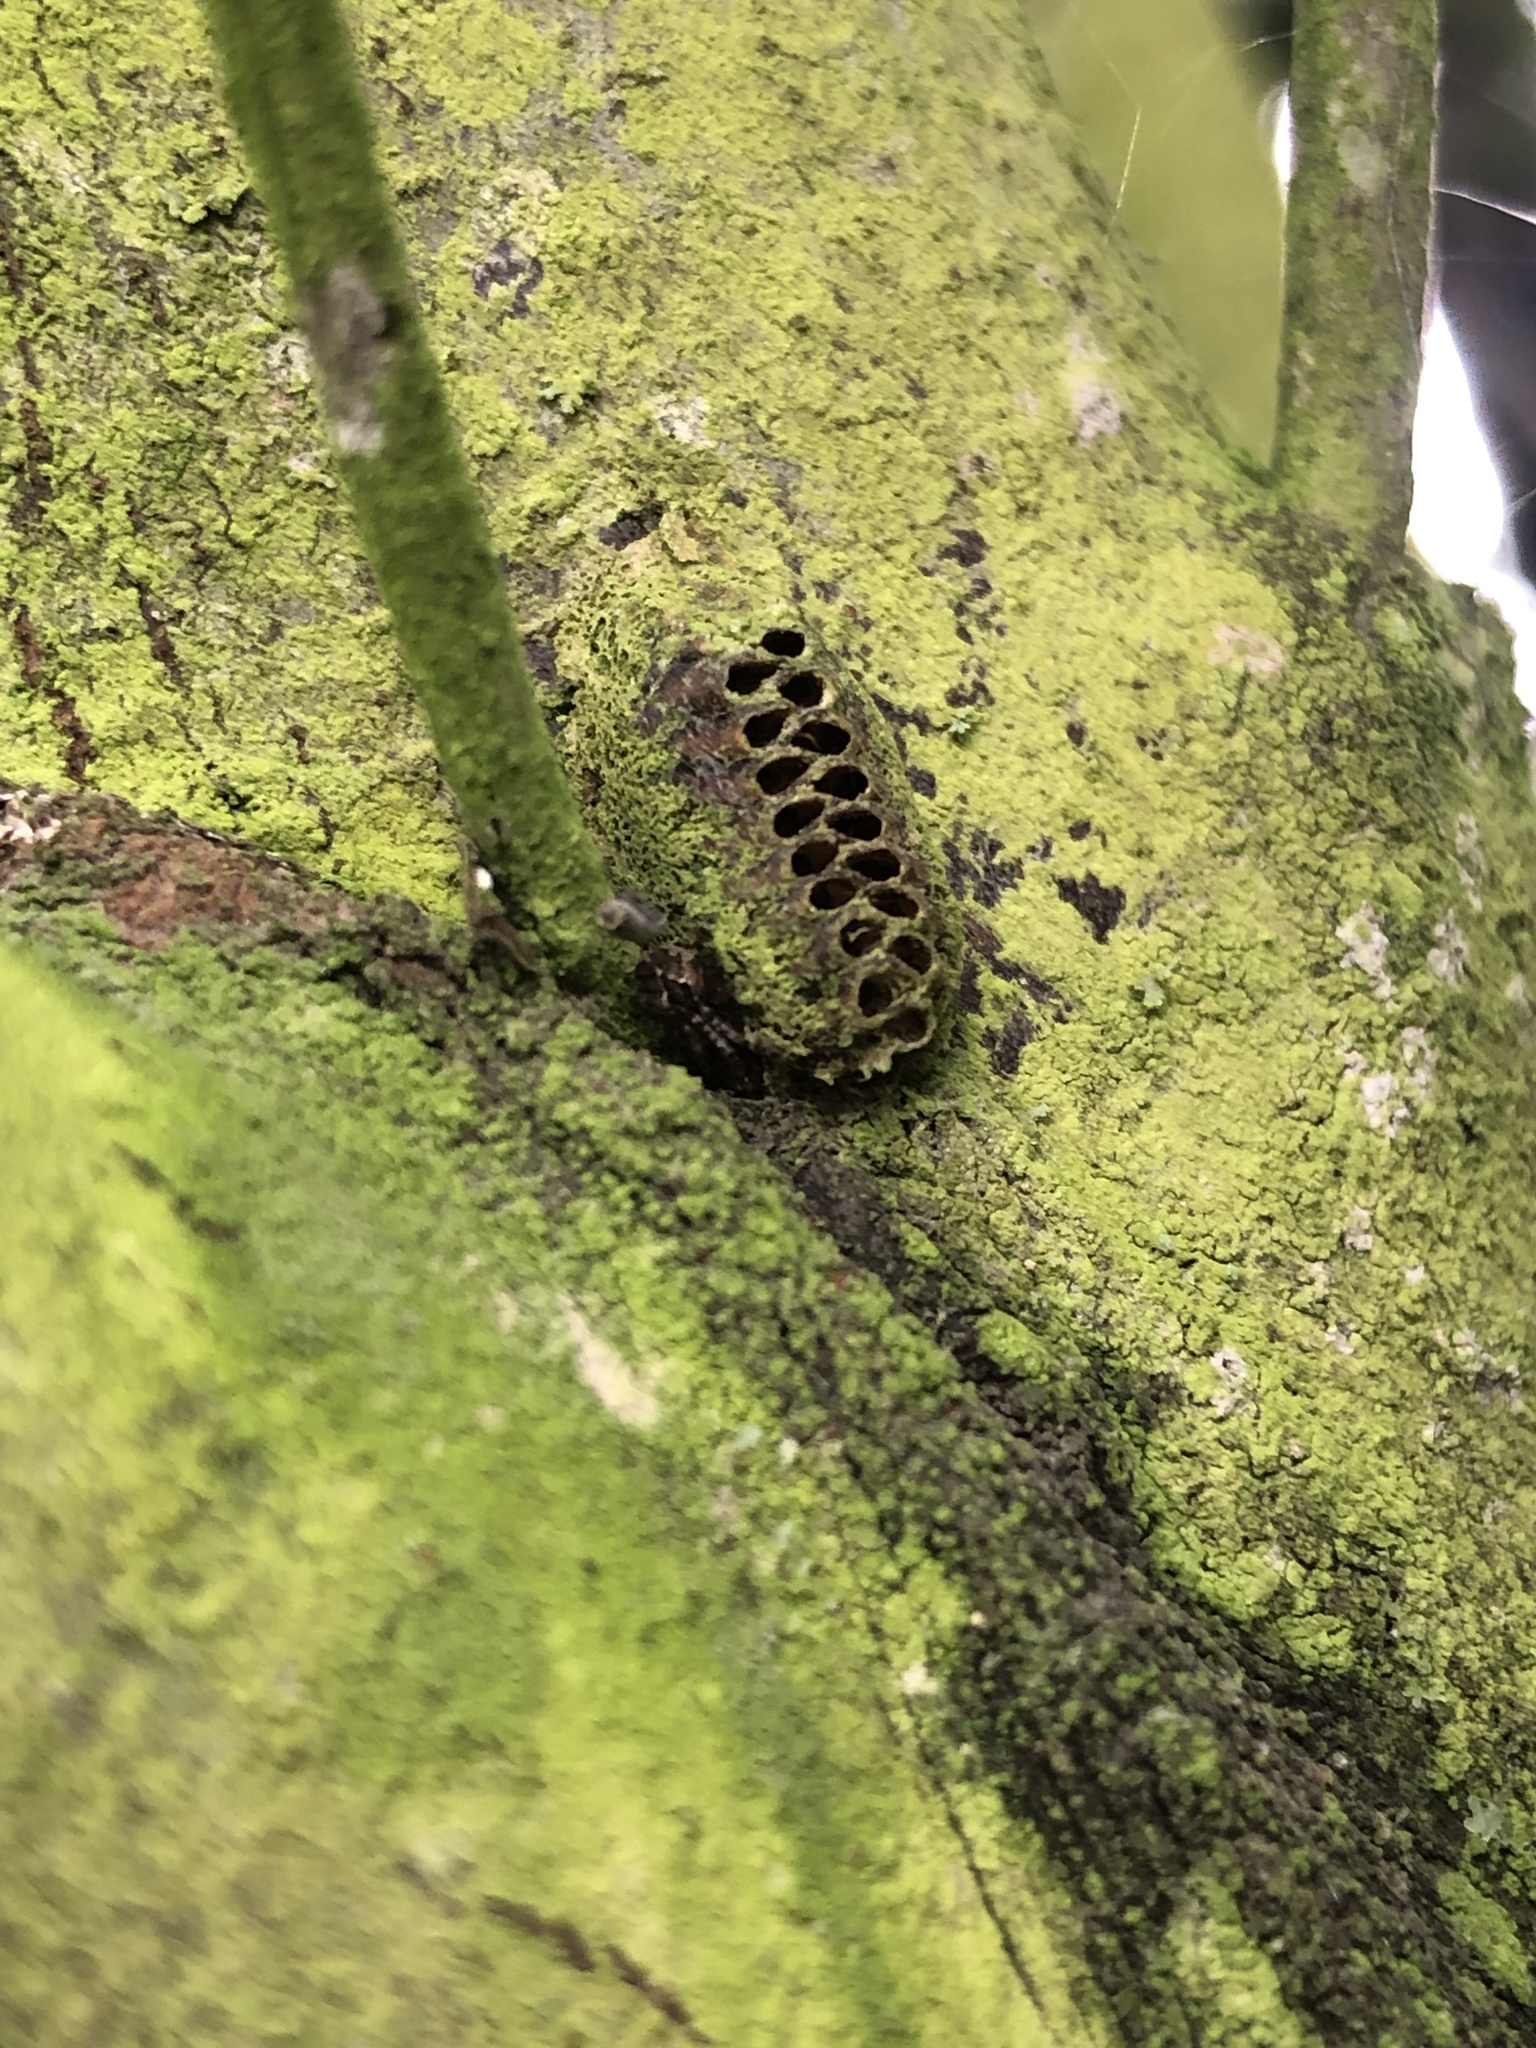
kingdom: Animalia
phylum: Arthropoda
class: Insecta
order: Mantodea
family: Mantidae
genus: Orthodera
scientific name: Orthodera novaezealandiae
